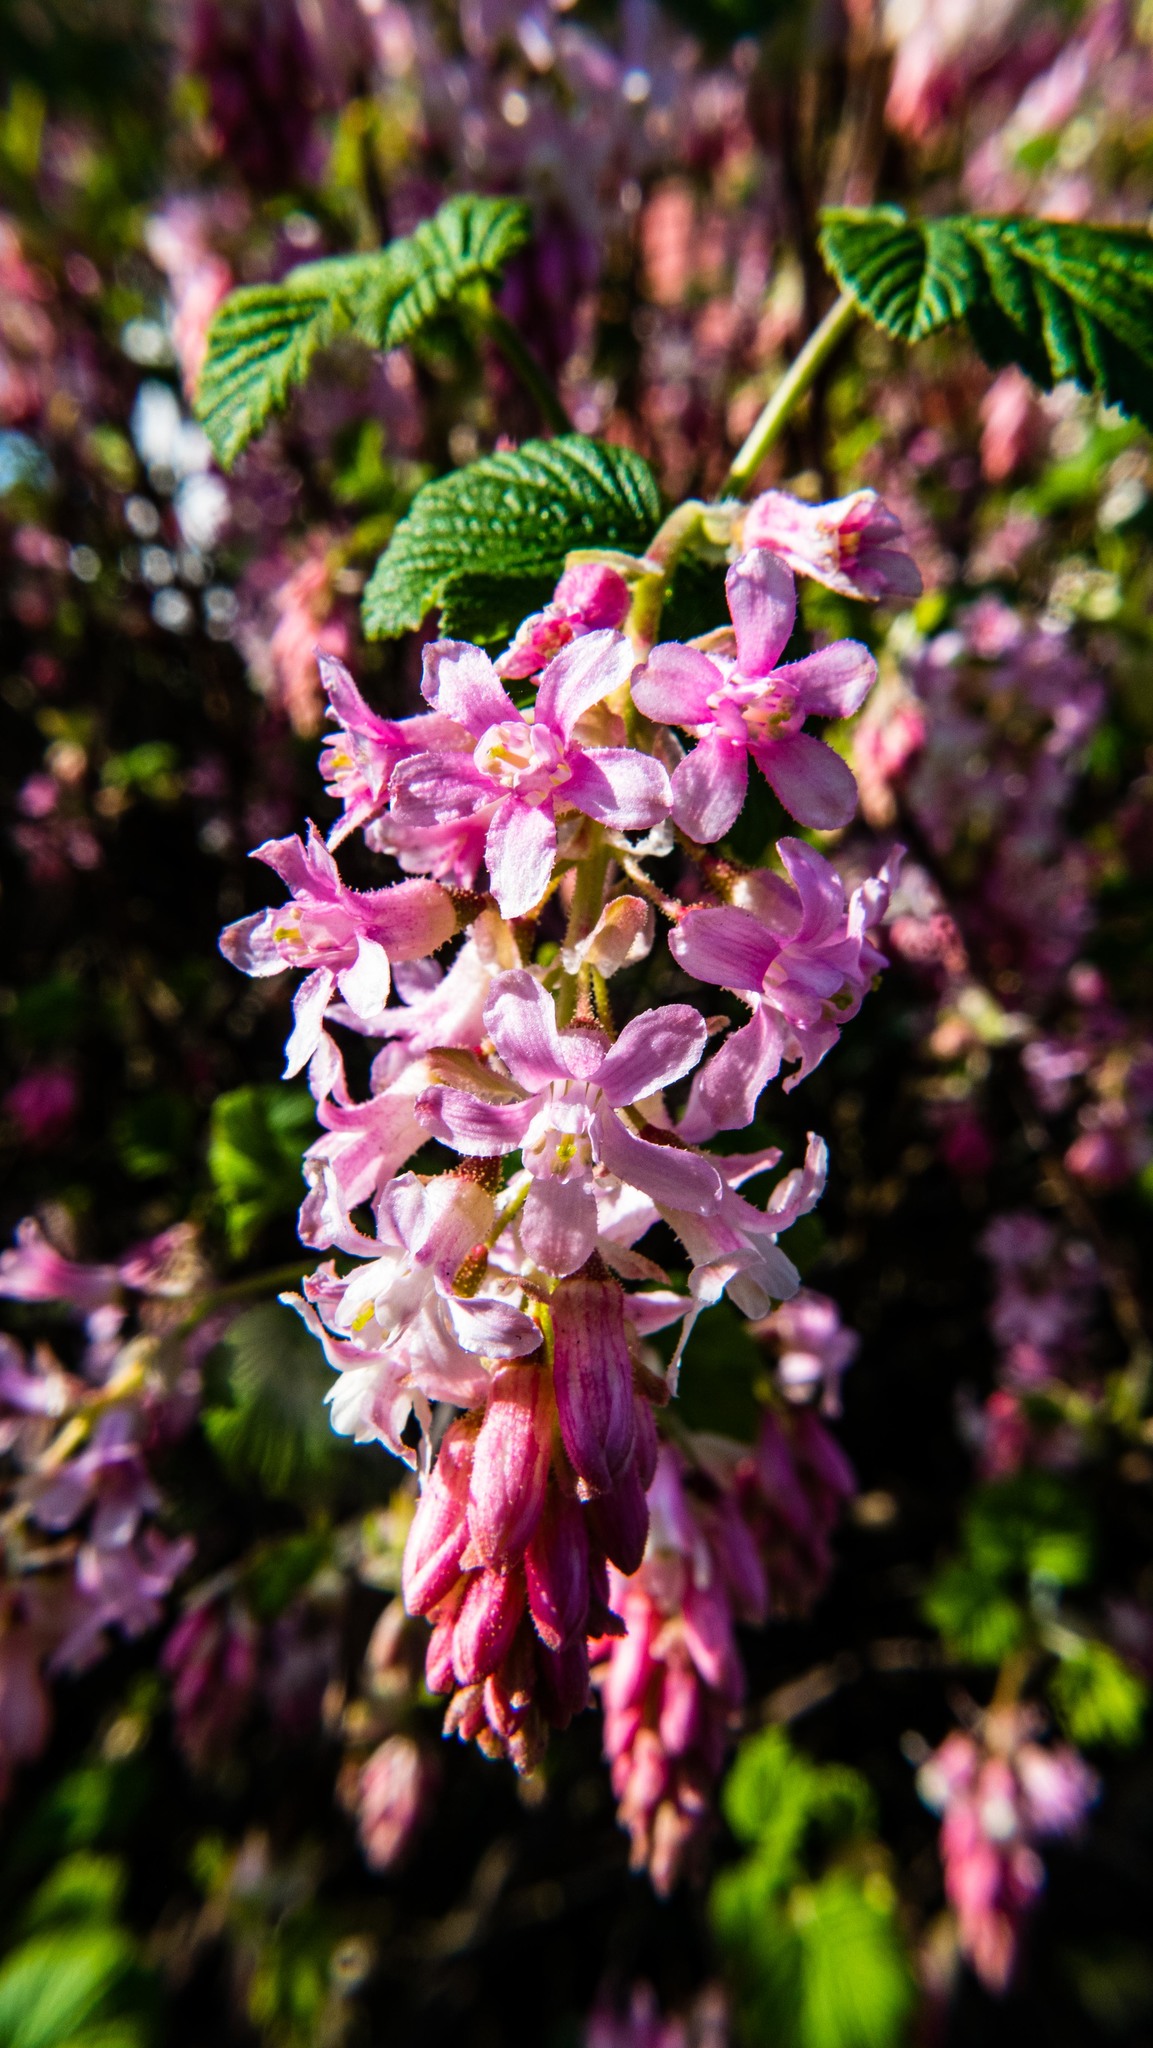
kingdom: Plantae
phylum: Tracheophyta
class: Magnoliopsida
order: Saxifragales
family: Grossulariaceae
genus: Ribes
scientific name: Ribes sanguineum
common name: Flowering currant
